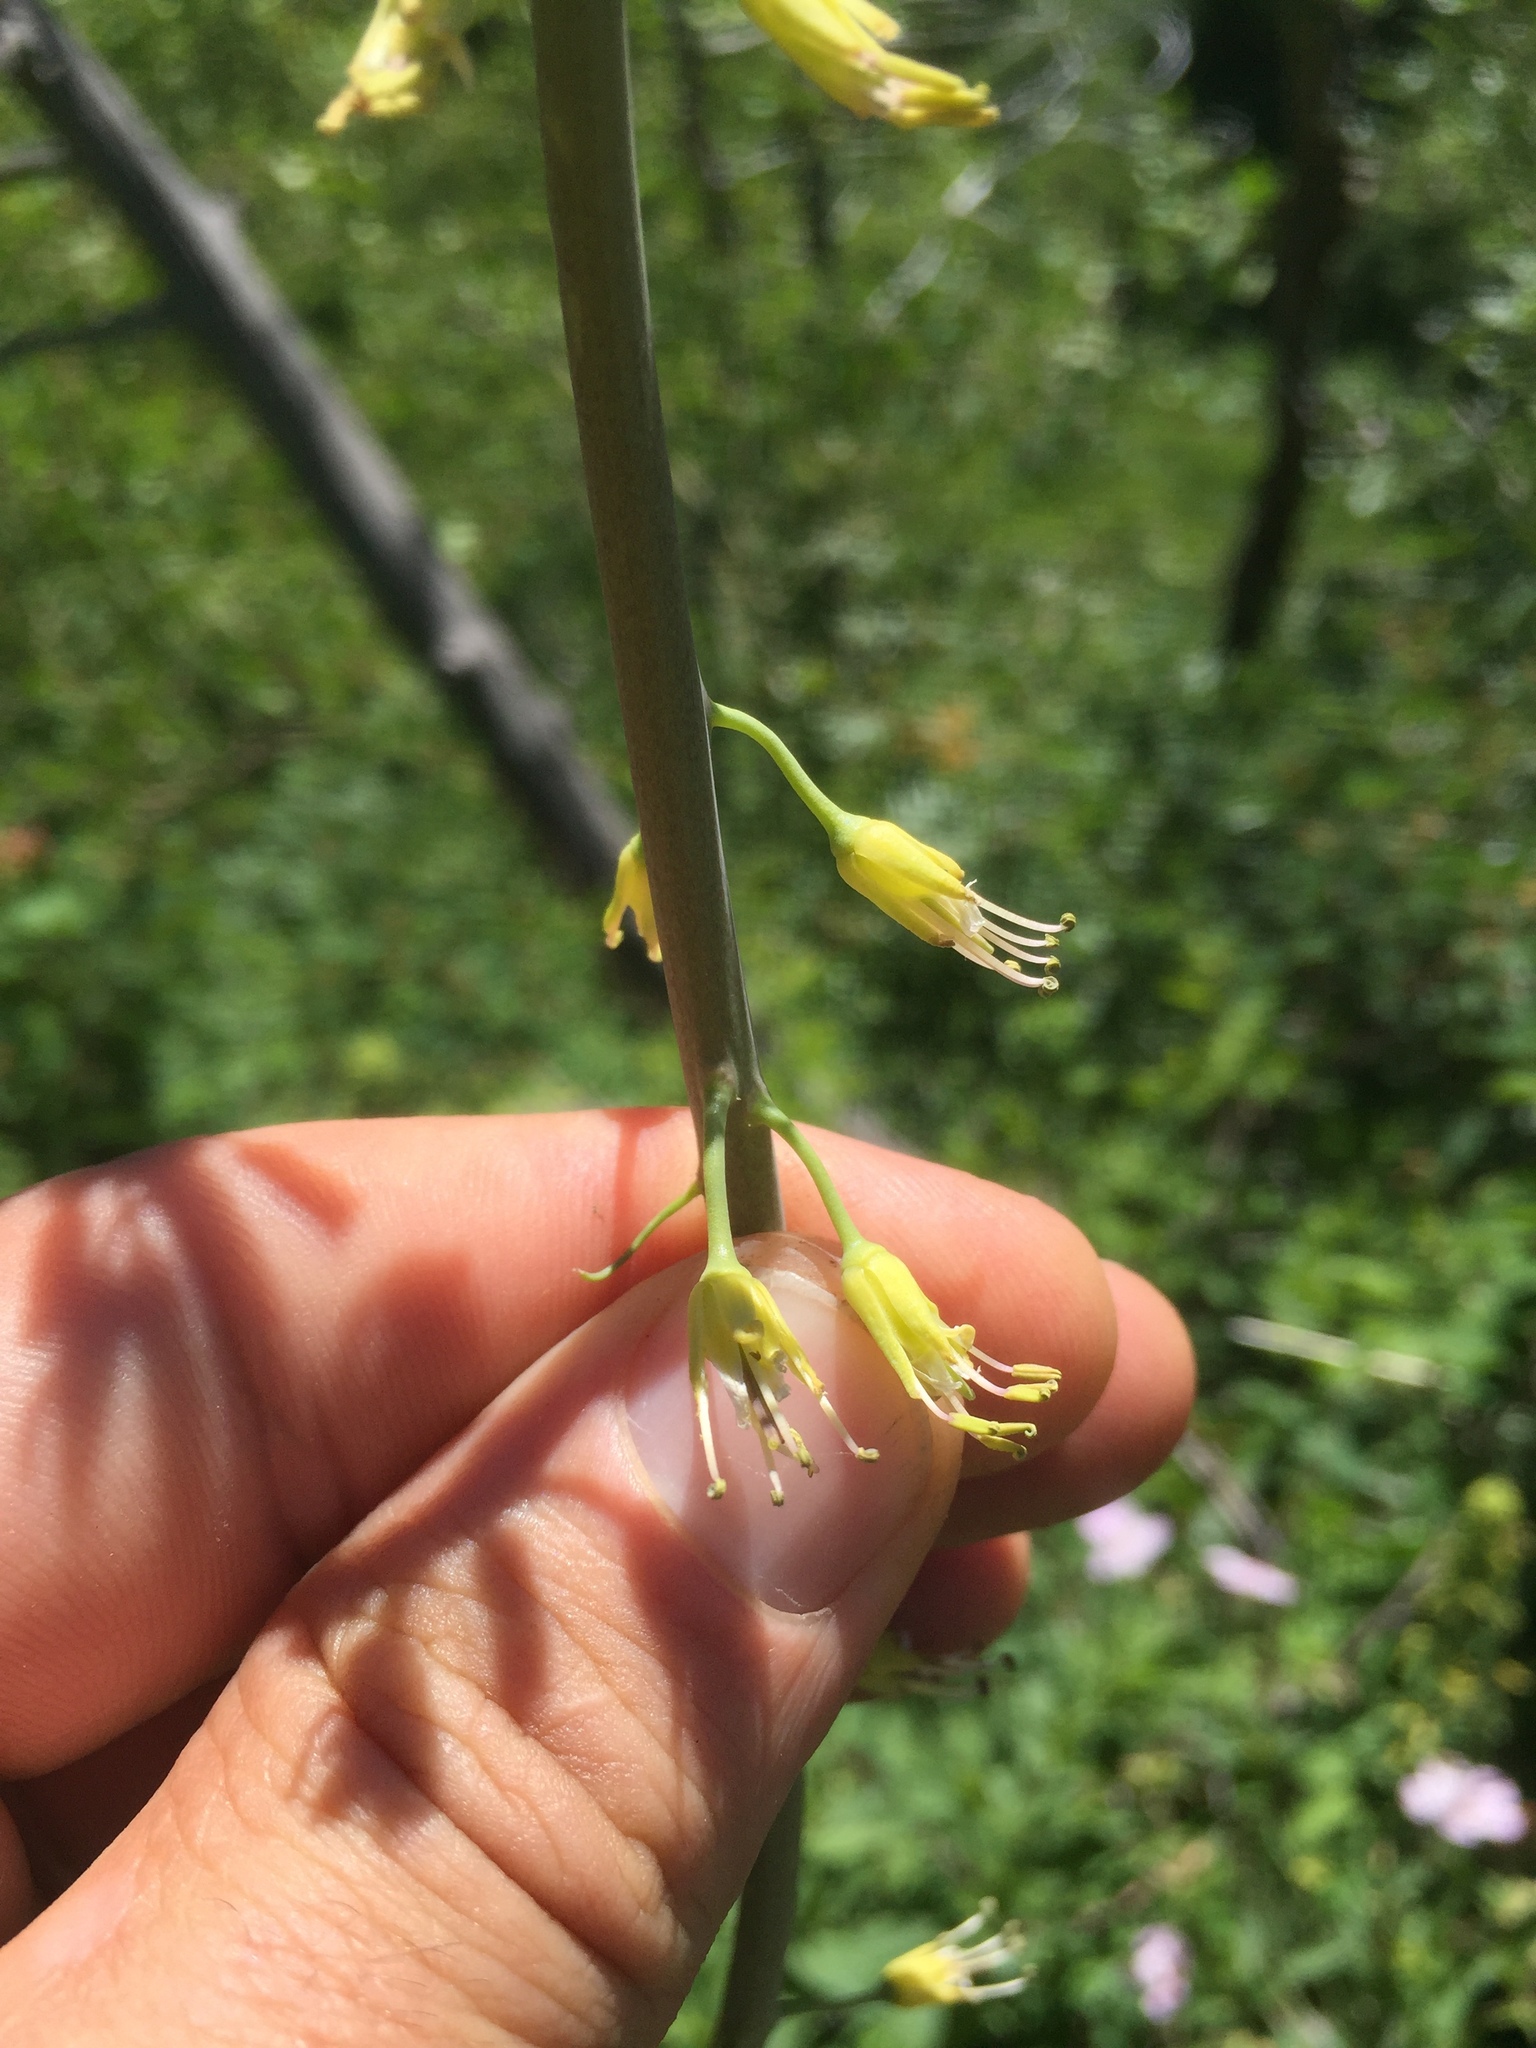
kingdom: Plantae
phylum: Tracheophyta
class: Magnoliopsida
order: Brassicales
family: Brassicaceae
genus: Chlorocrambe
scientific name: Chlorocrambe hastata
